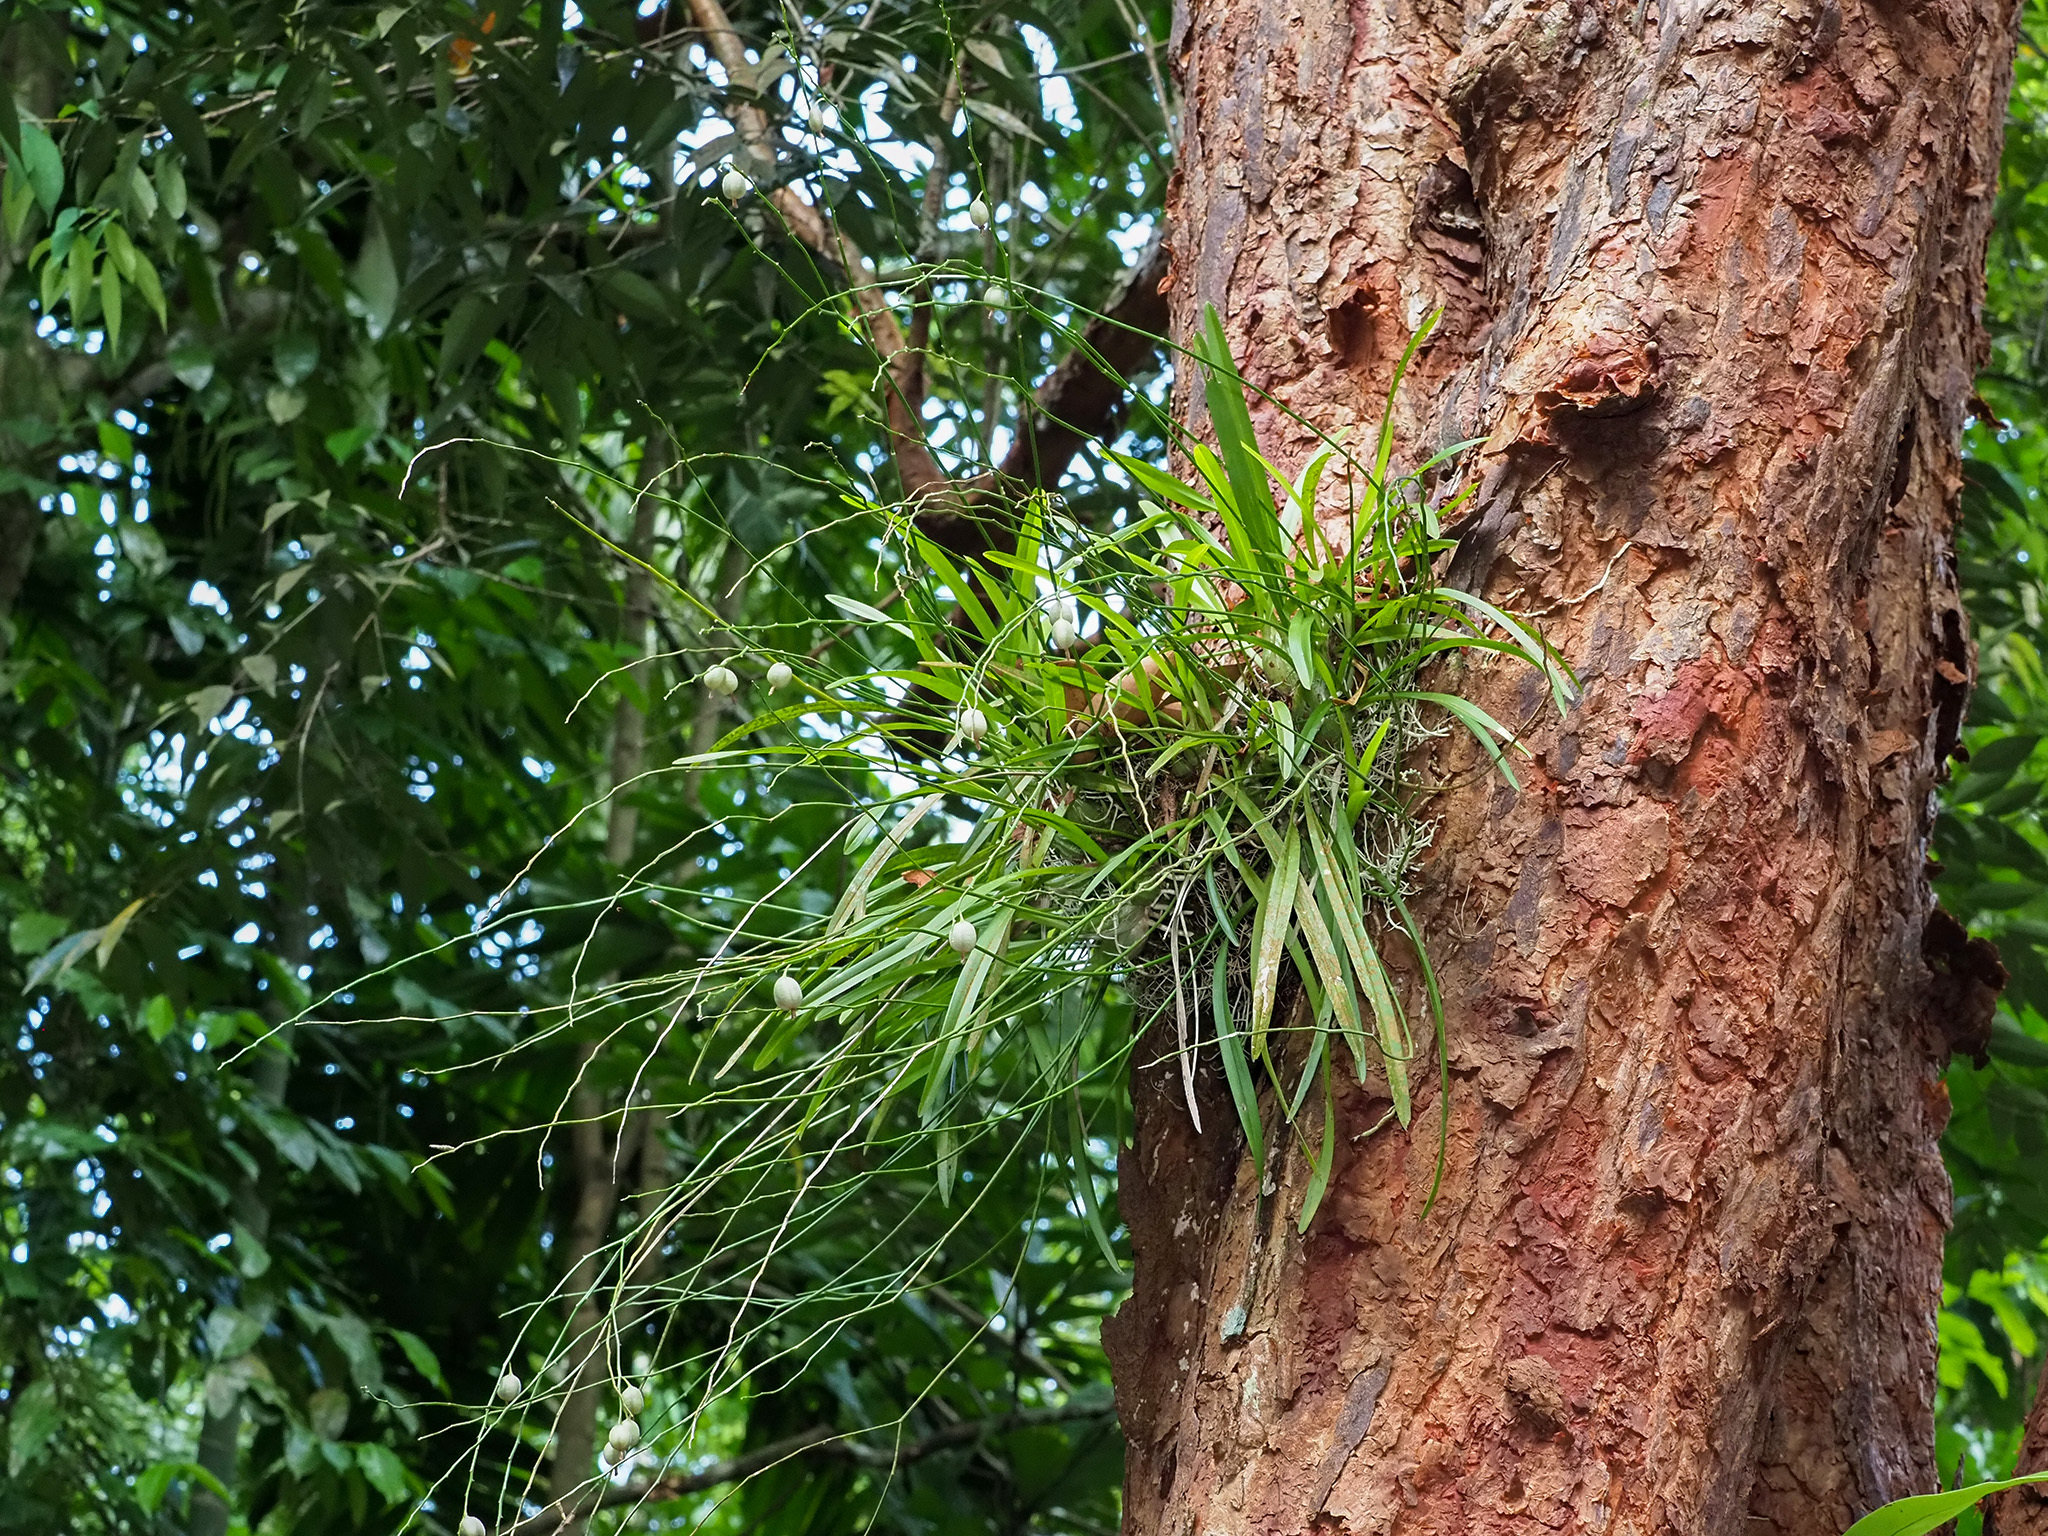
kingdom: Plantae
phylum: Tracheophyta
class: Liliopsida
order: Asparagales
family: Orchidaceae
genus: Acriopsis
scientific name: Acriopsis liliifolia
